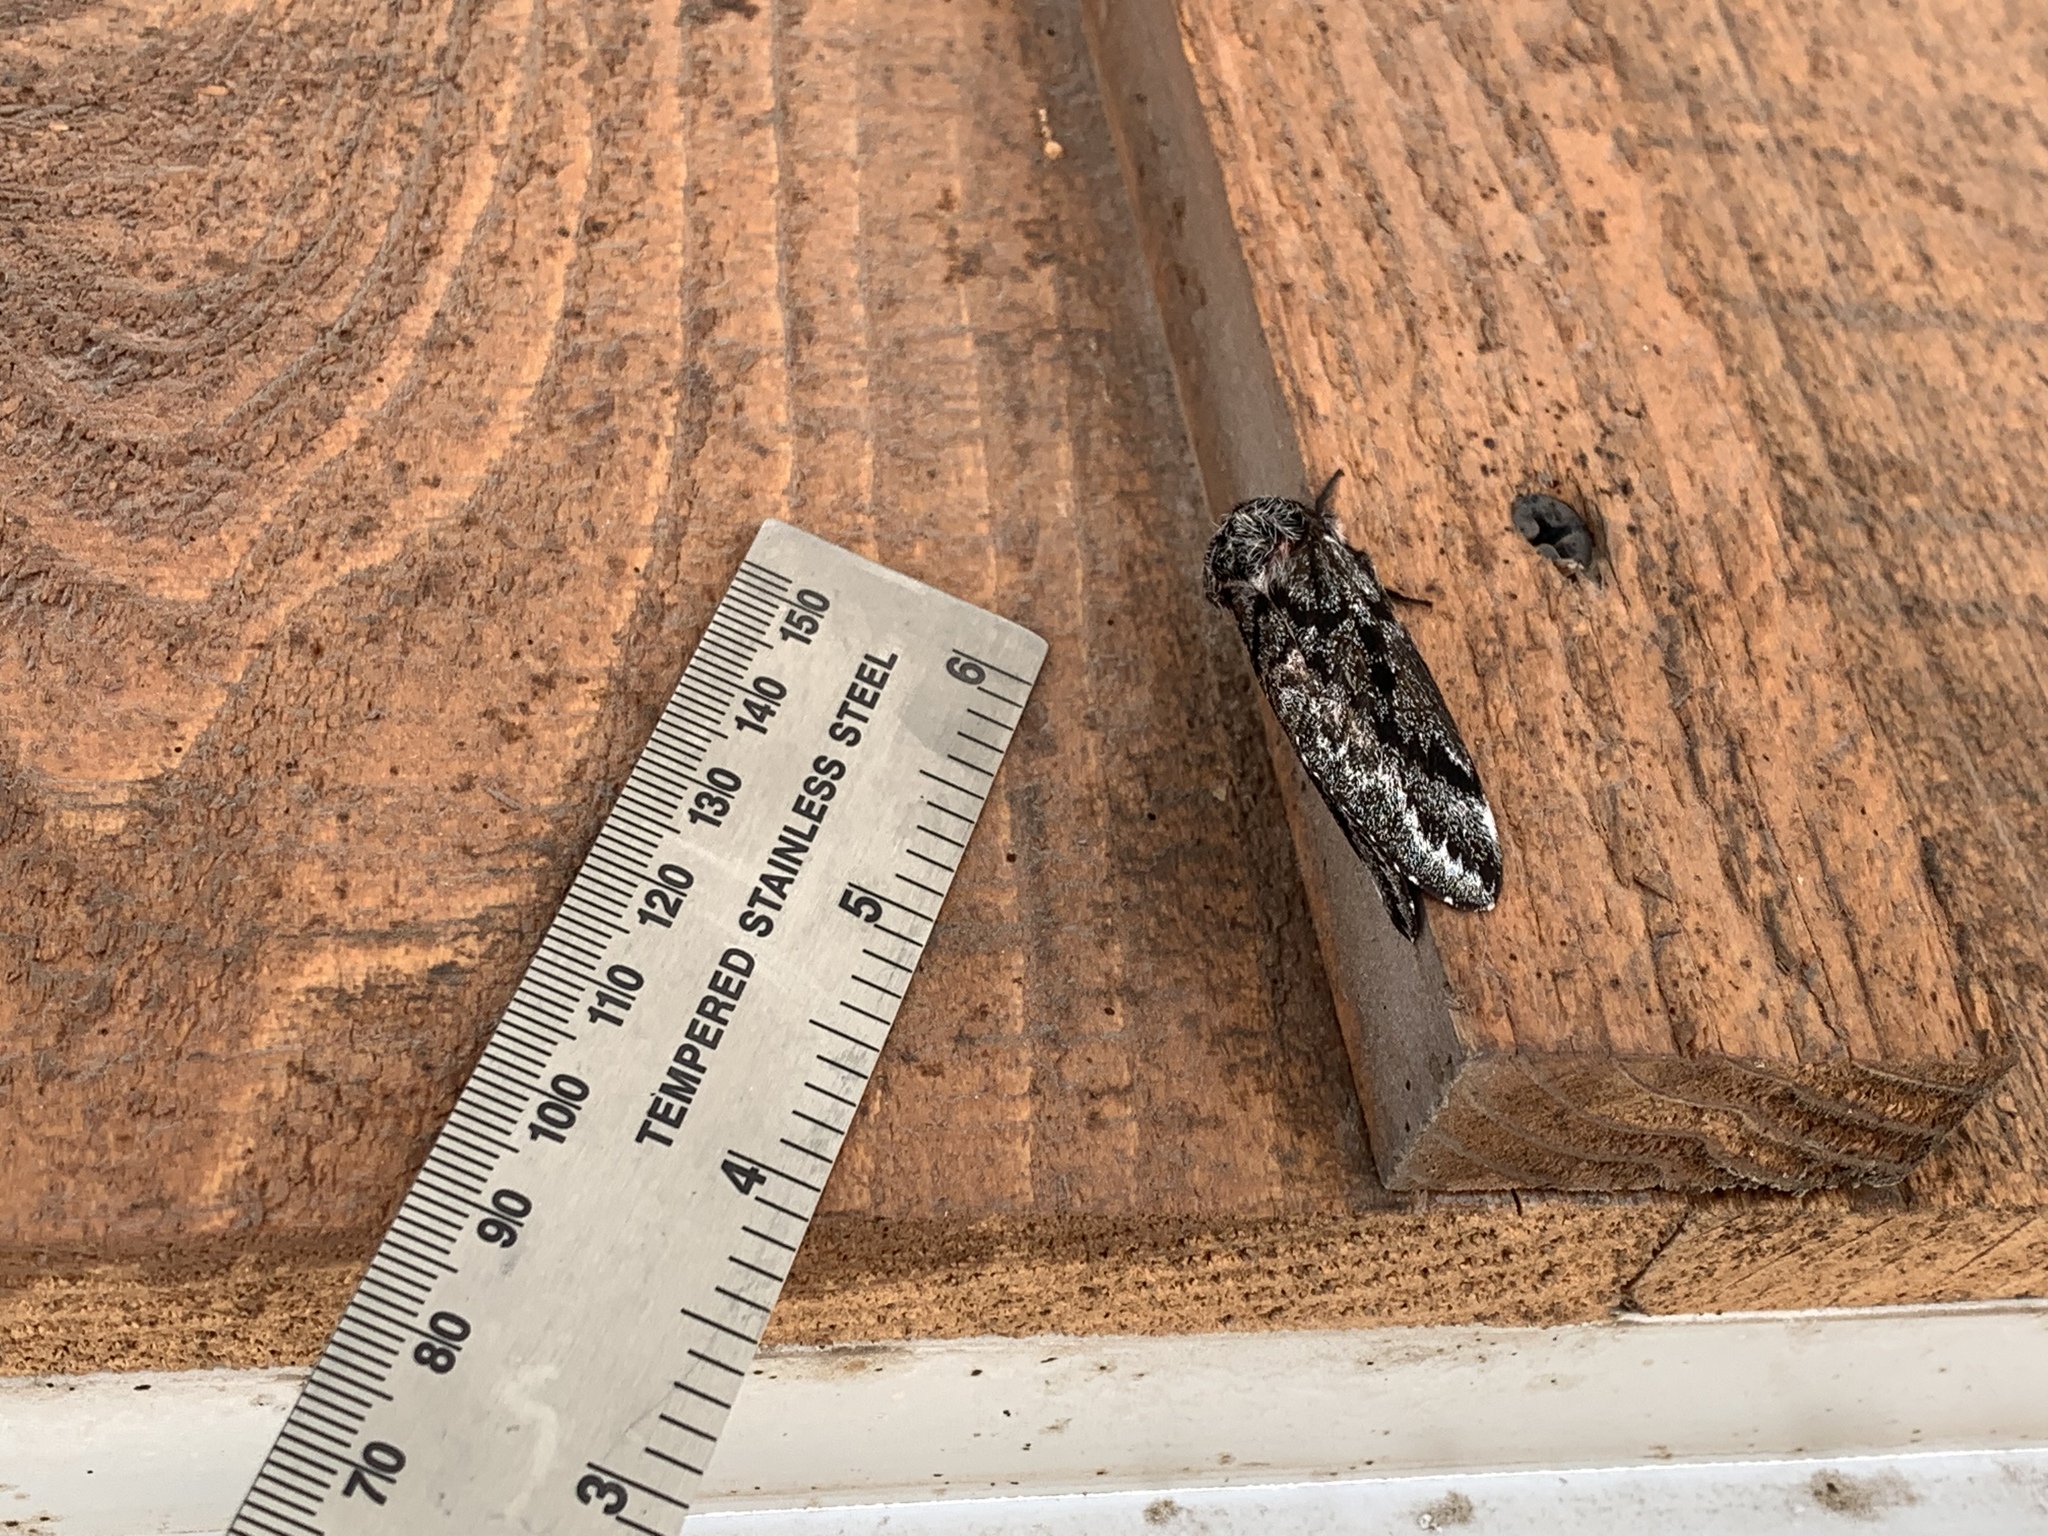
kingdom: Animalia
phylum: Arthropoda
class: Insecta
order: Lepidoptera
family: Saturniidae
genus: Coloradia
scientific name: Coloradia pandora
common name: Pandora pinemoth
